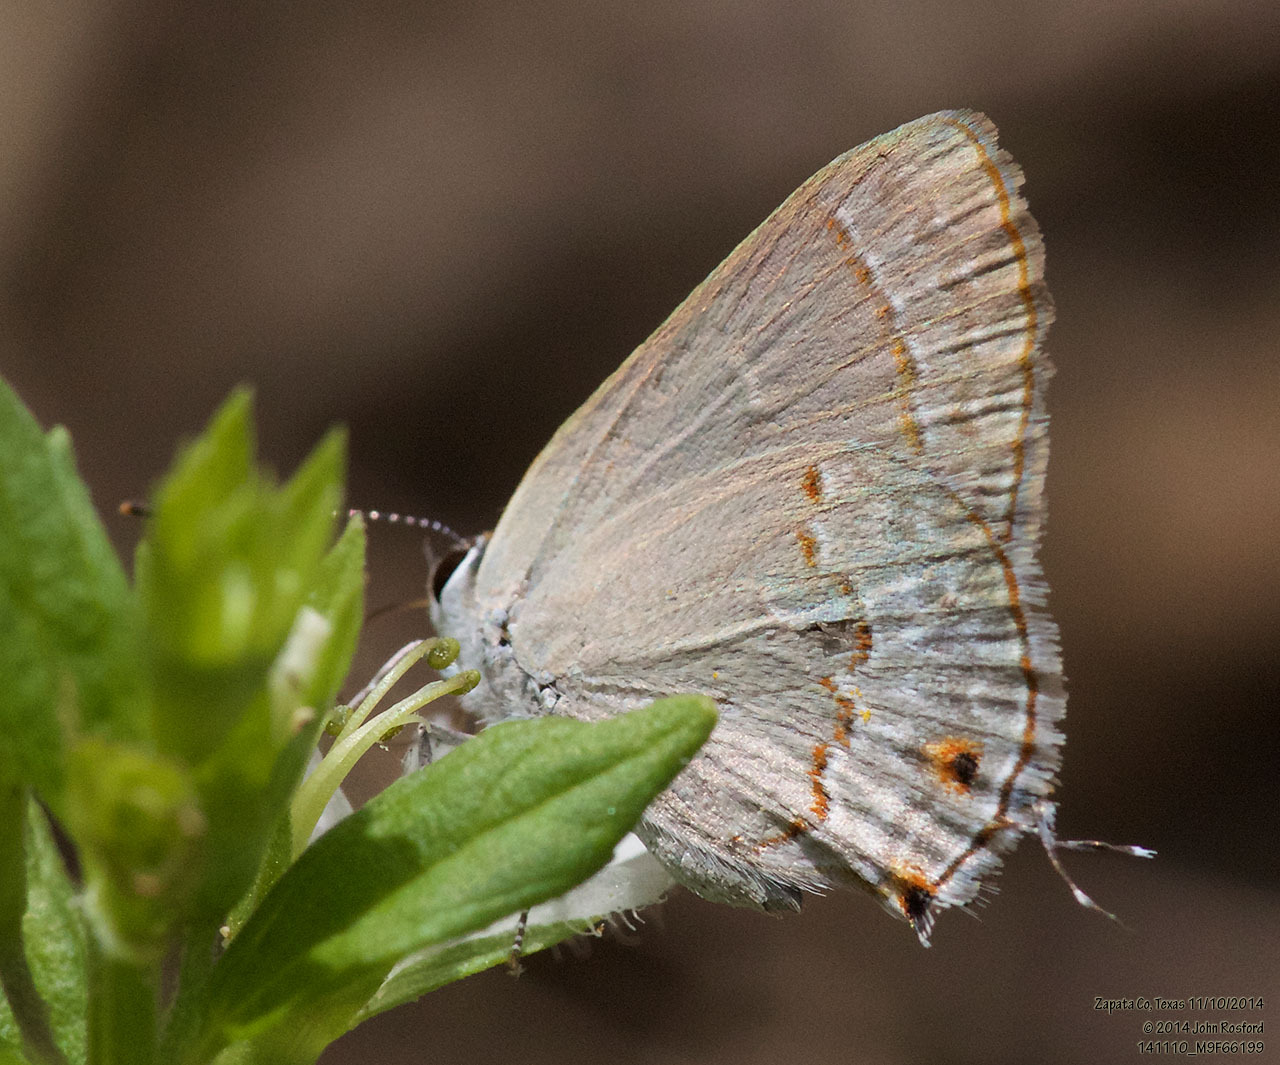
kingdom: Animalia
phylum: Arthropoda
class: Insecta
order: Lepidoptera
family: Lycaenidae
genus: Thecla
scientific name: Thecla rufofusca
